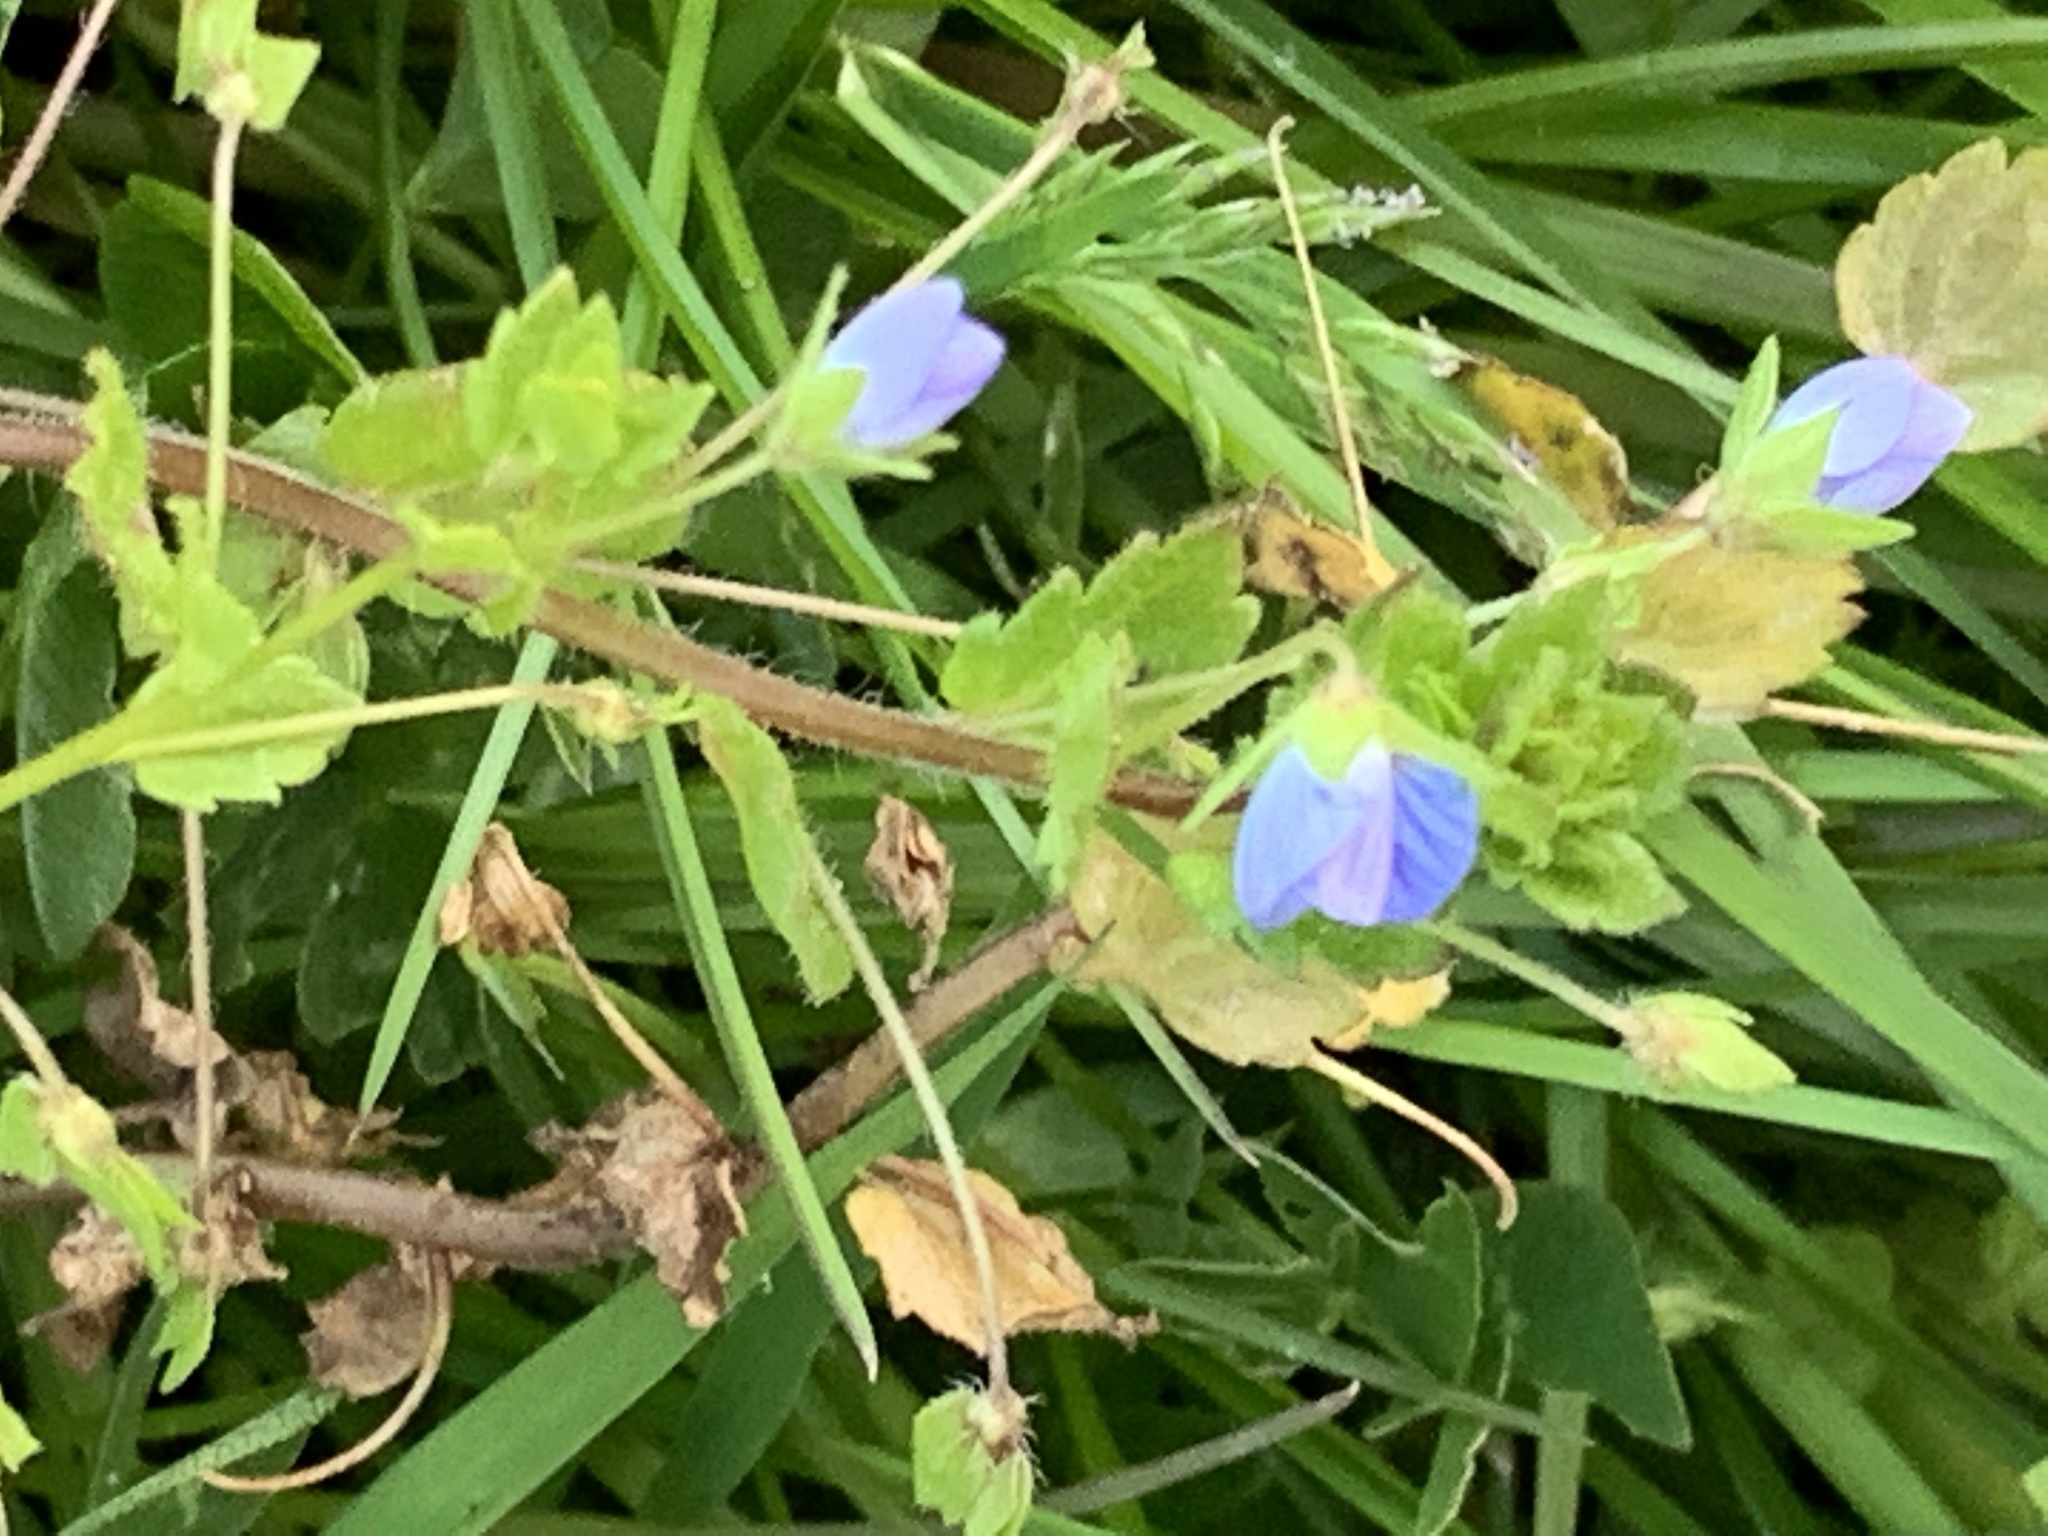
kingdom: Plantae
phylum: Tracheophyta
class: Magnoliopsida
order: Lamiales
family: Plantaginaceae
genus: Veronica
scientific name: Veronica persica
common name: Common field-speedwell
